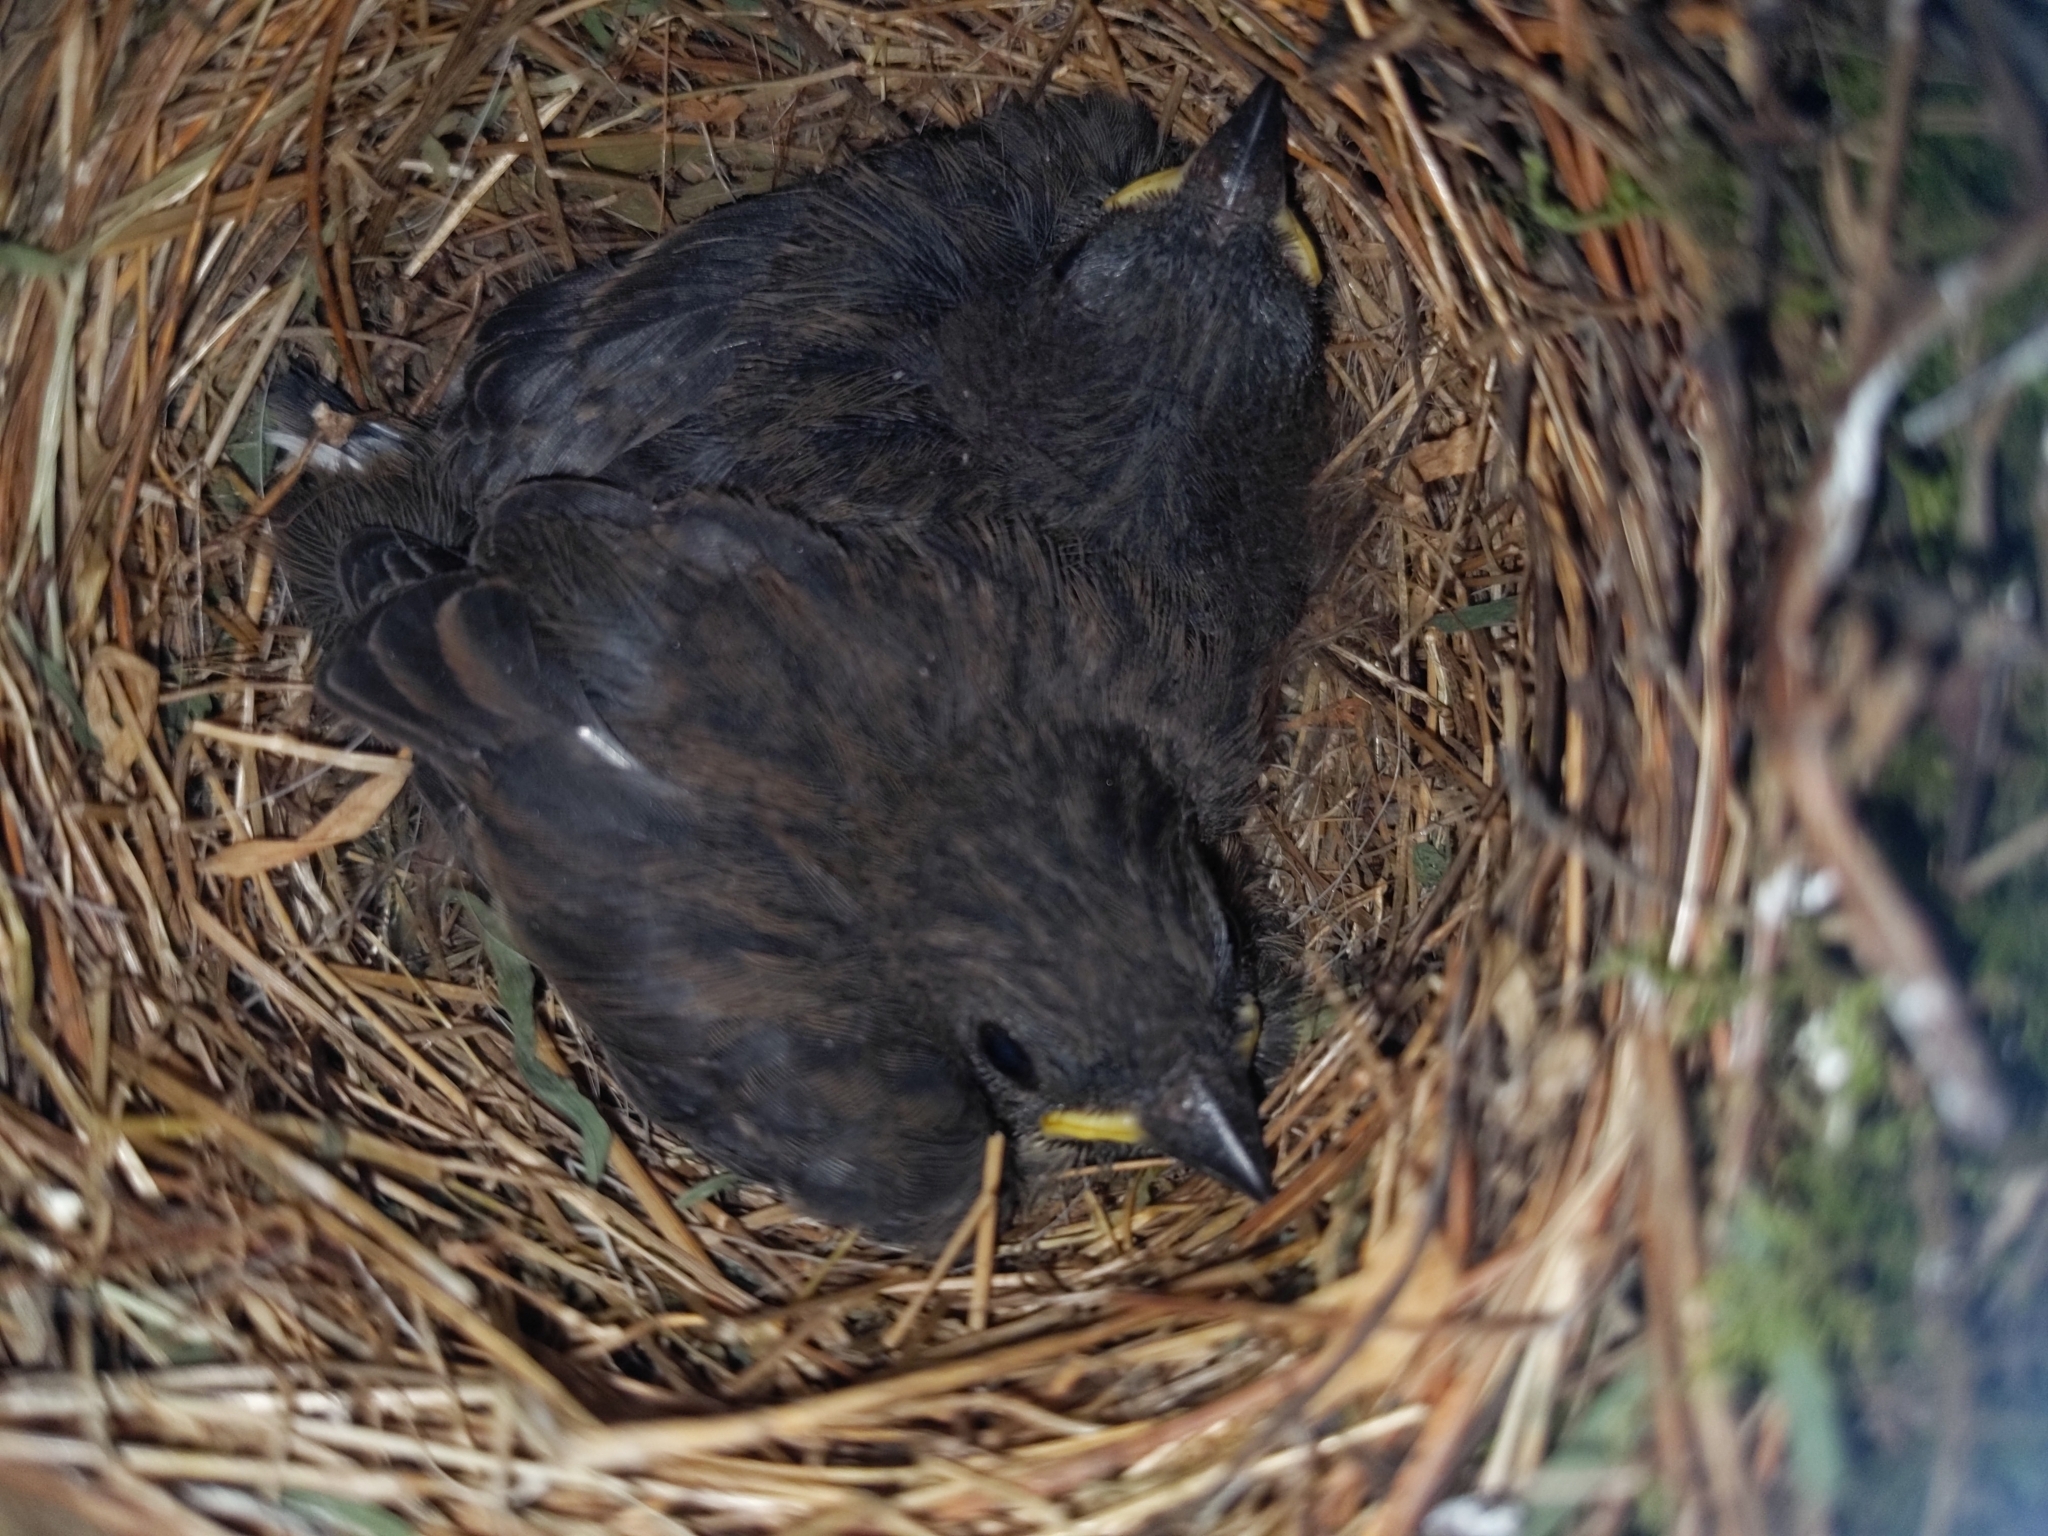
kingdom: Animalia
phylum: Chordata
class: Aves
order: Passeriformes
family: Passerellidae
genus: Junco
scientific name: Junco hyemalis
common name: Dark-eyed junco
